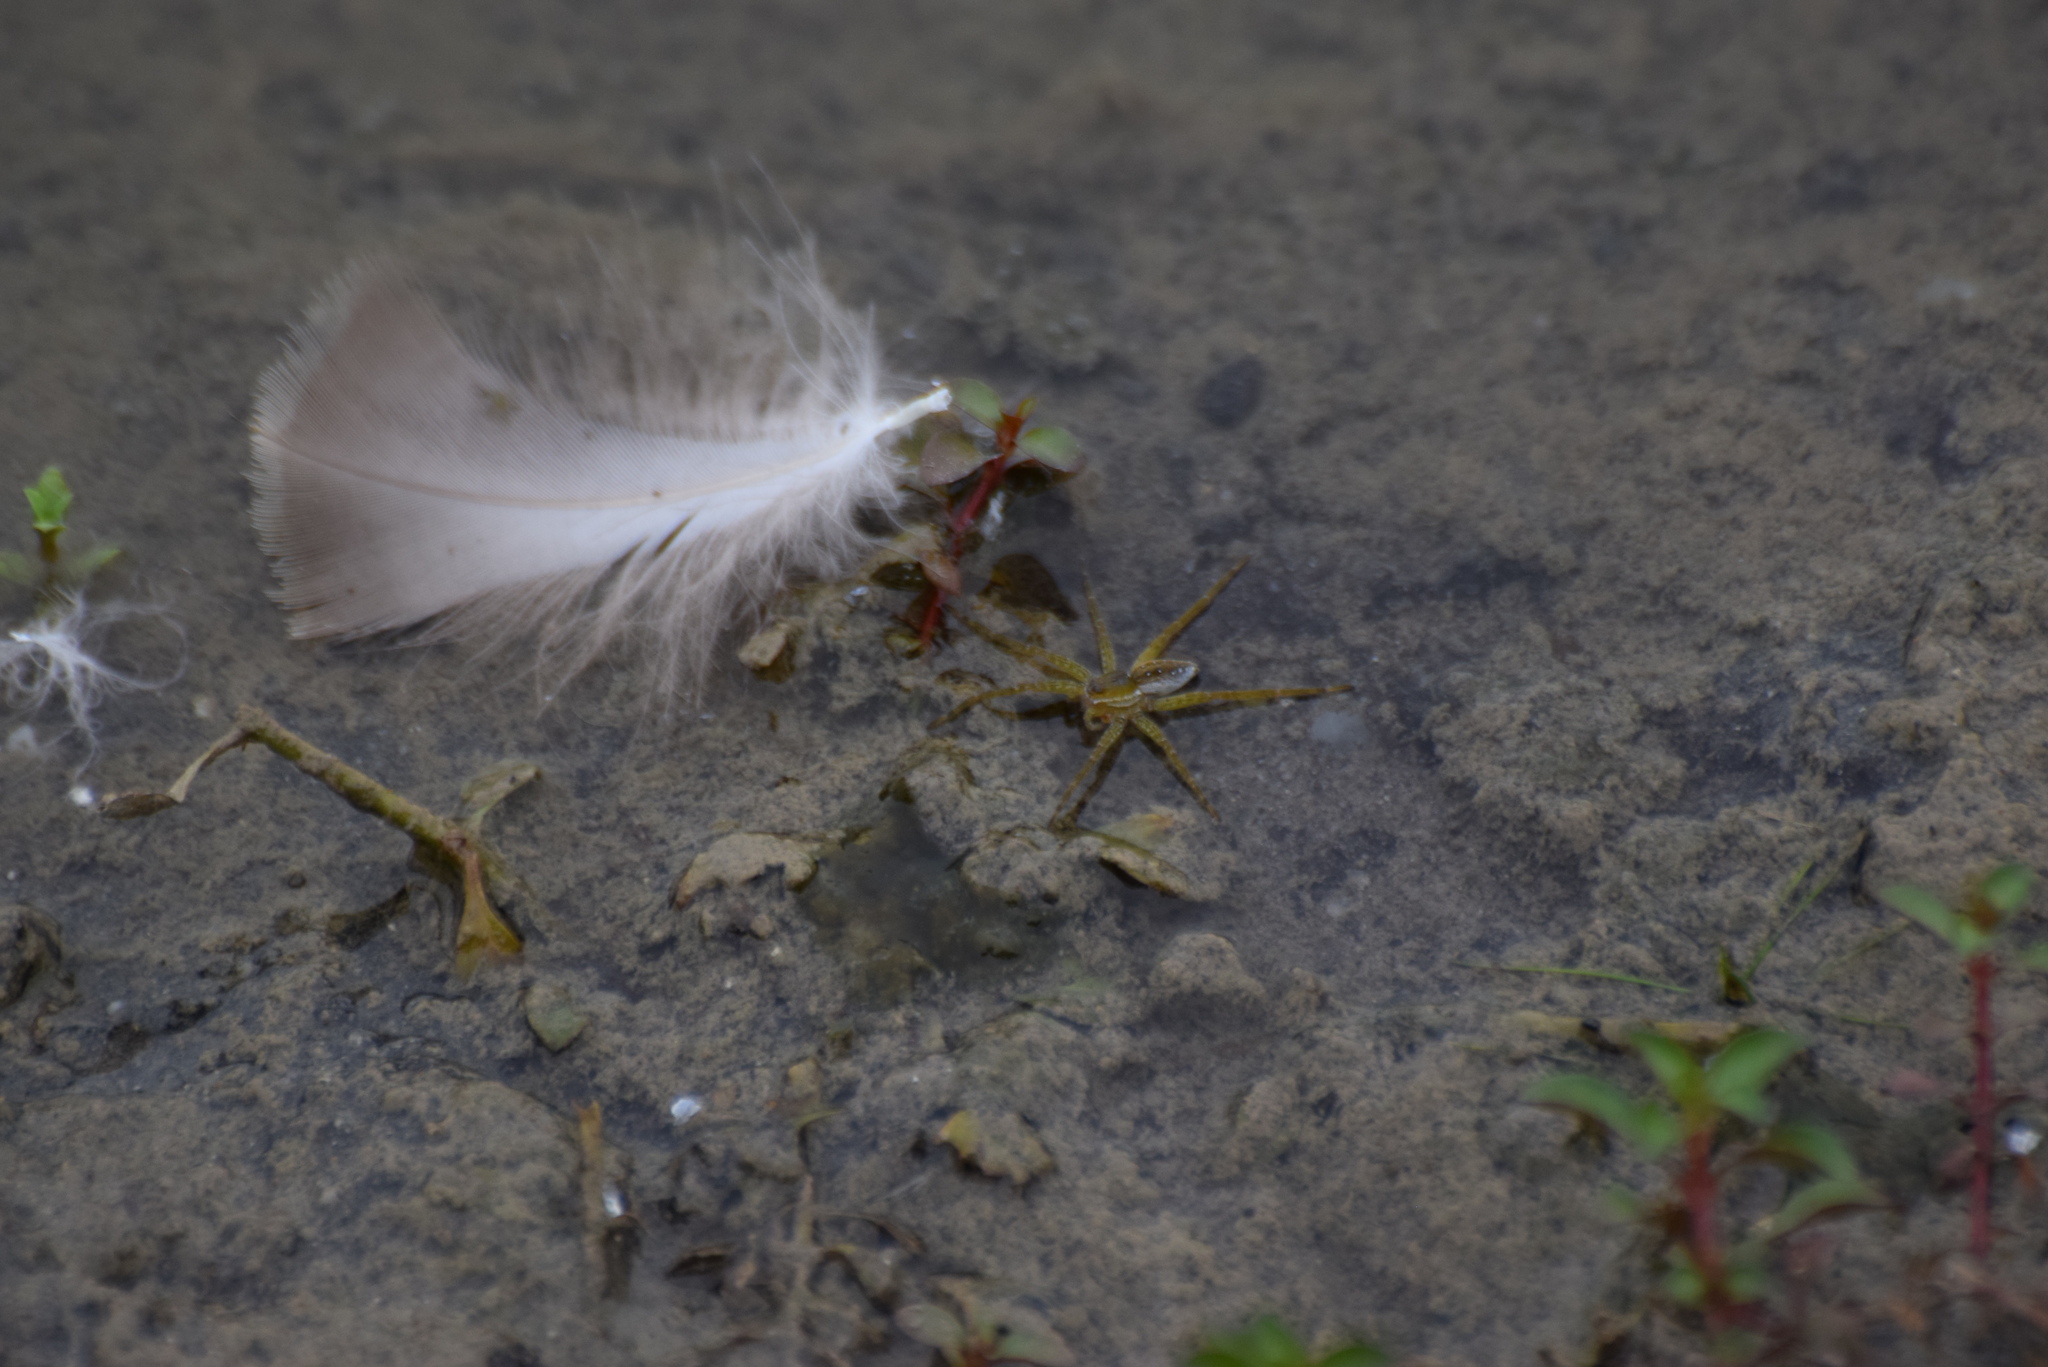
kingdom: Animalia
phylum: Arthropoda
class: Arachnida
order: Araneae
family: Pisauridae
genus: Dolomedes
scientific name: Dolomedes triton
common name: Six-spotted fishing spider
